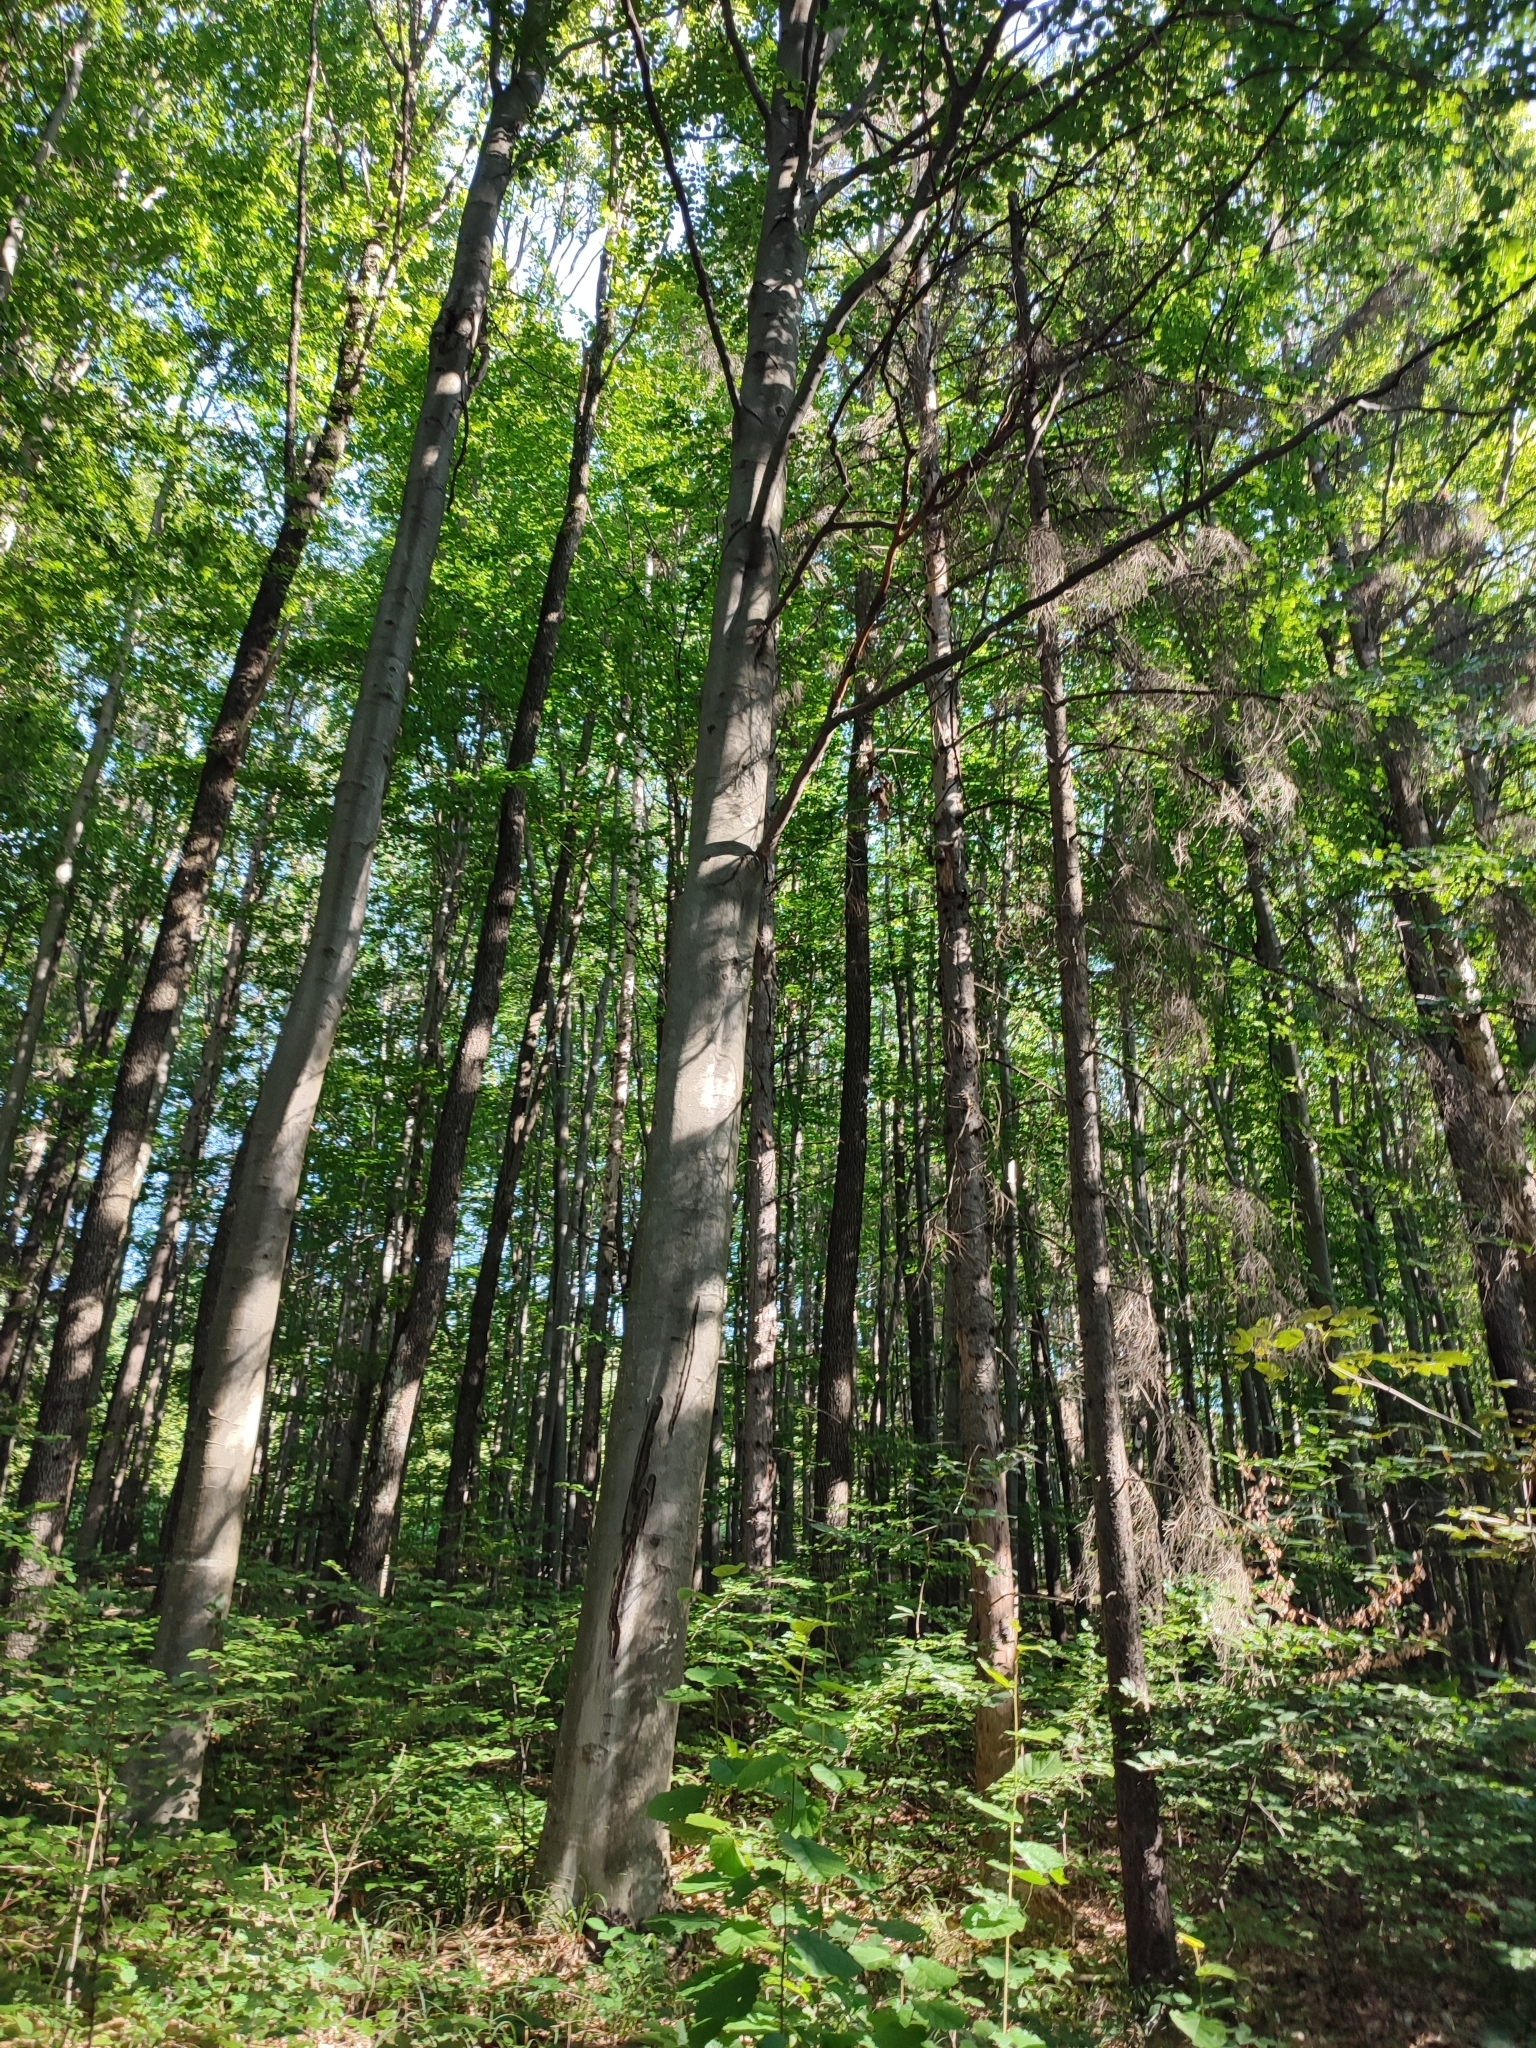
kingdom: Plantae
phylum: Tracheophyta
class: Magnoliopsida
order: Fagales
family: Fagaceae
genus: Fagus
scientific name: Fagus sylvatica
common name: Beech
